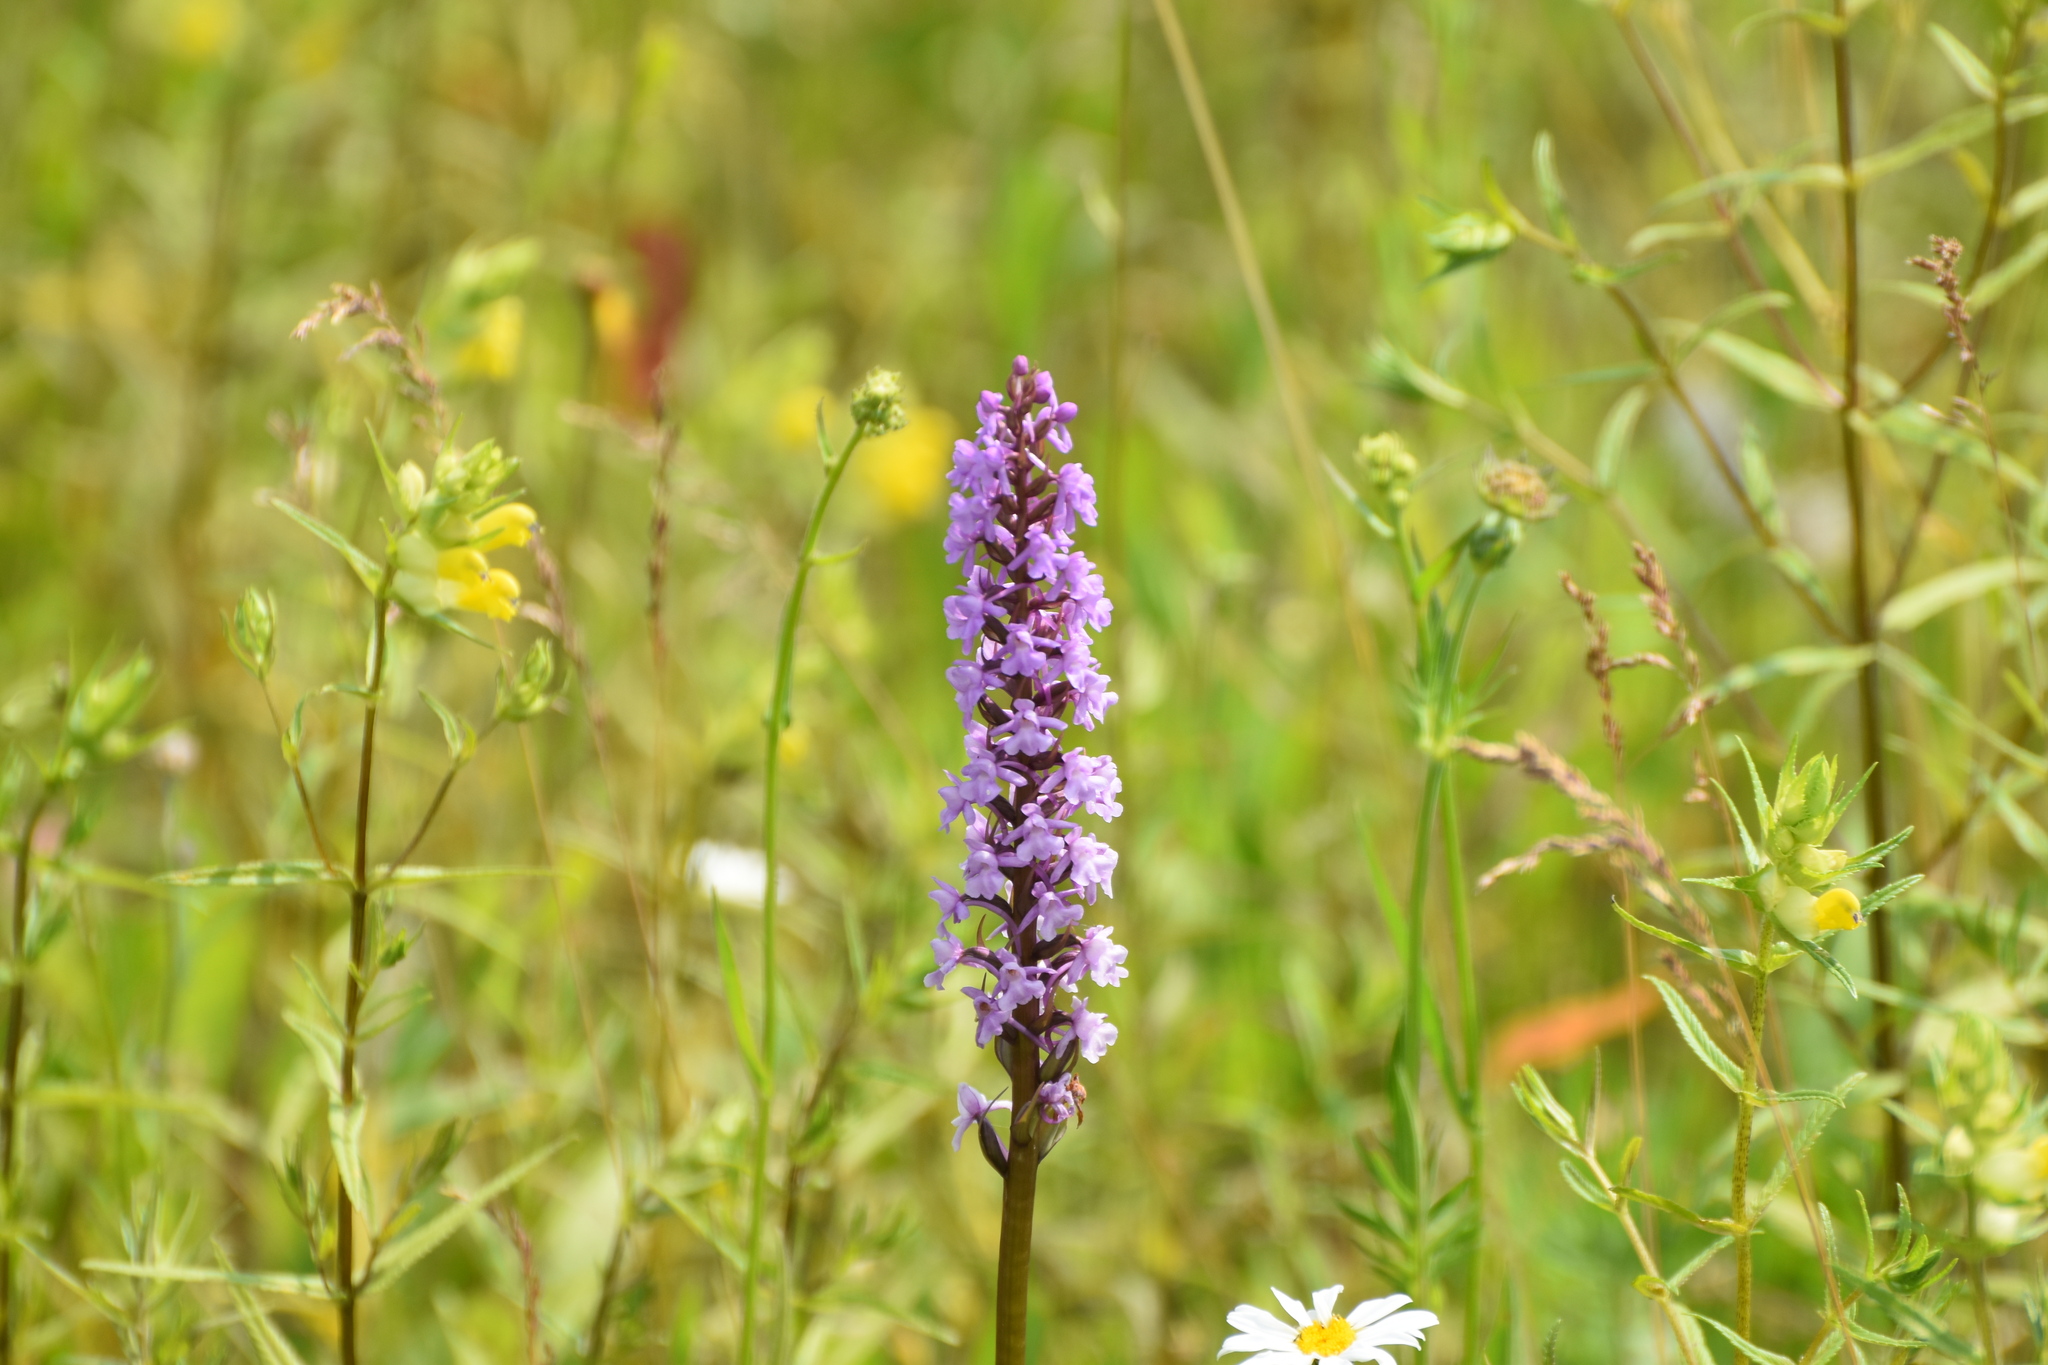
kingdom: Plantae
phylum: Tracheophyta
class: Liliopsida
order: Asparagales
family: Orchidaceae
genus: Gymnadenia
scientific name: Gymnadenia conopsea
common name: Fragrant orchid
